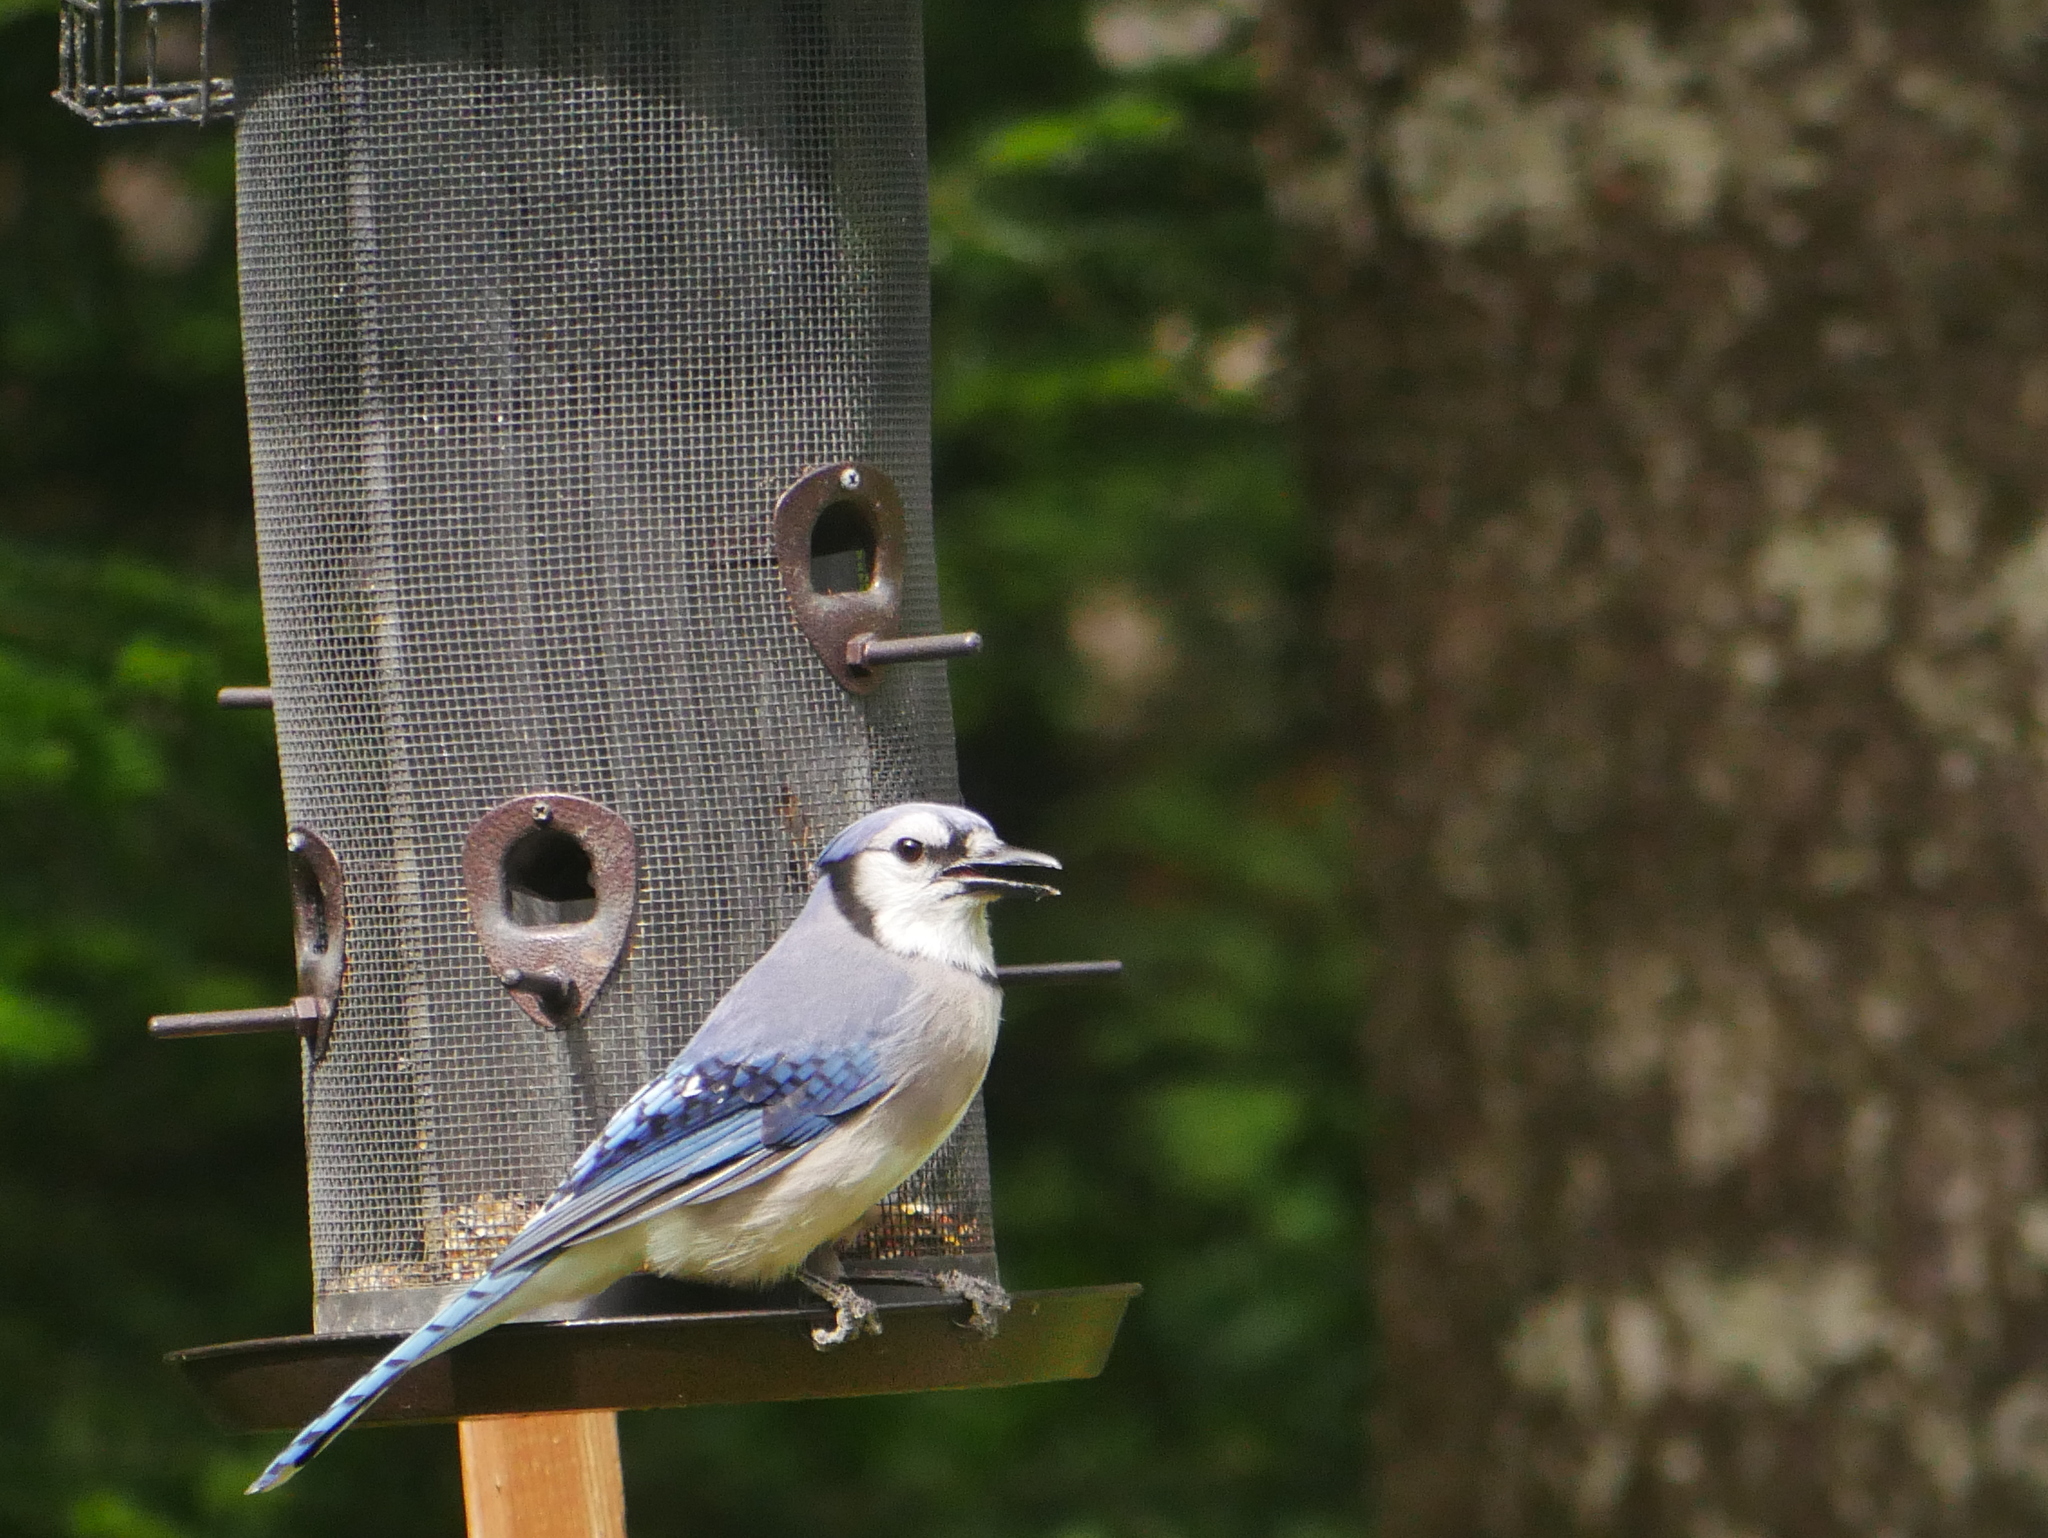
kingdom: Animalia
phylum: Chordata
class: Aves
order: Passeriformes
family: Corvidae
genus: Cyanocitta
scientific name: Cyanocitta cristata
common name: Blue jay
